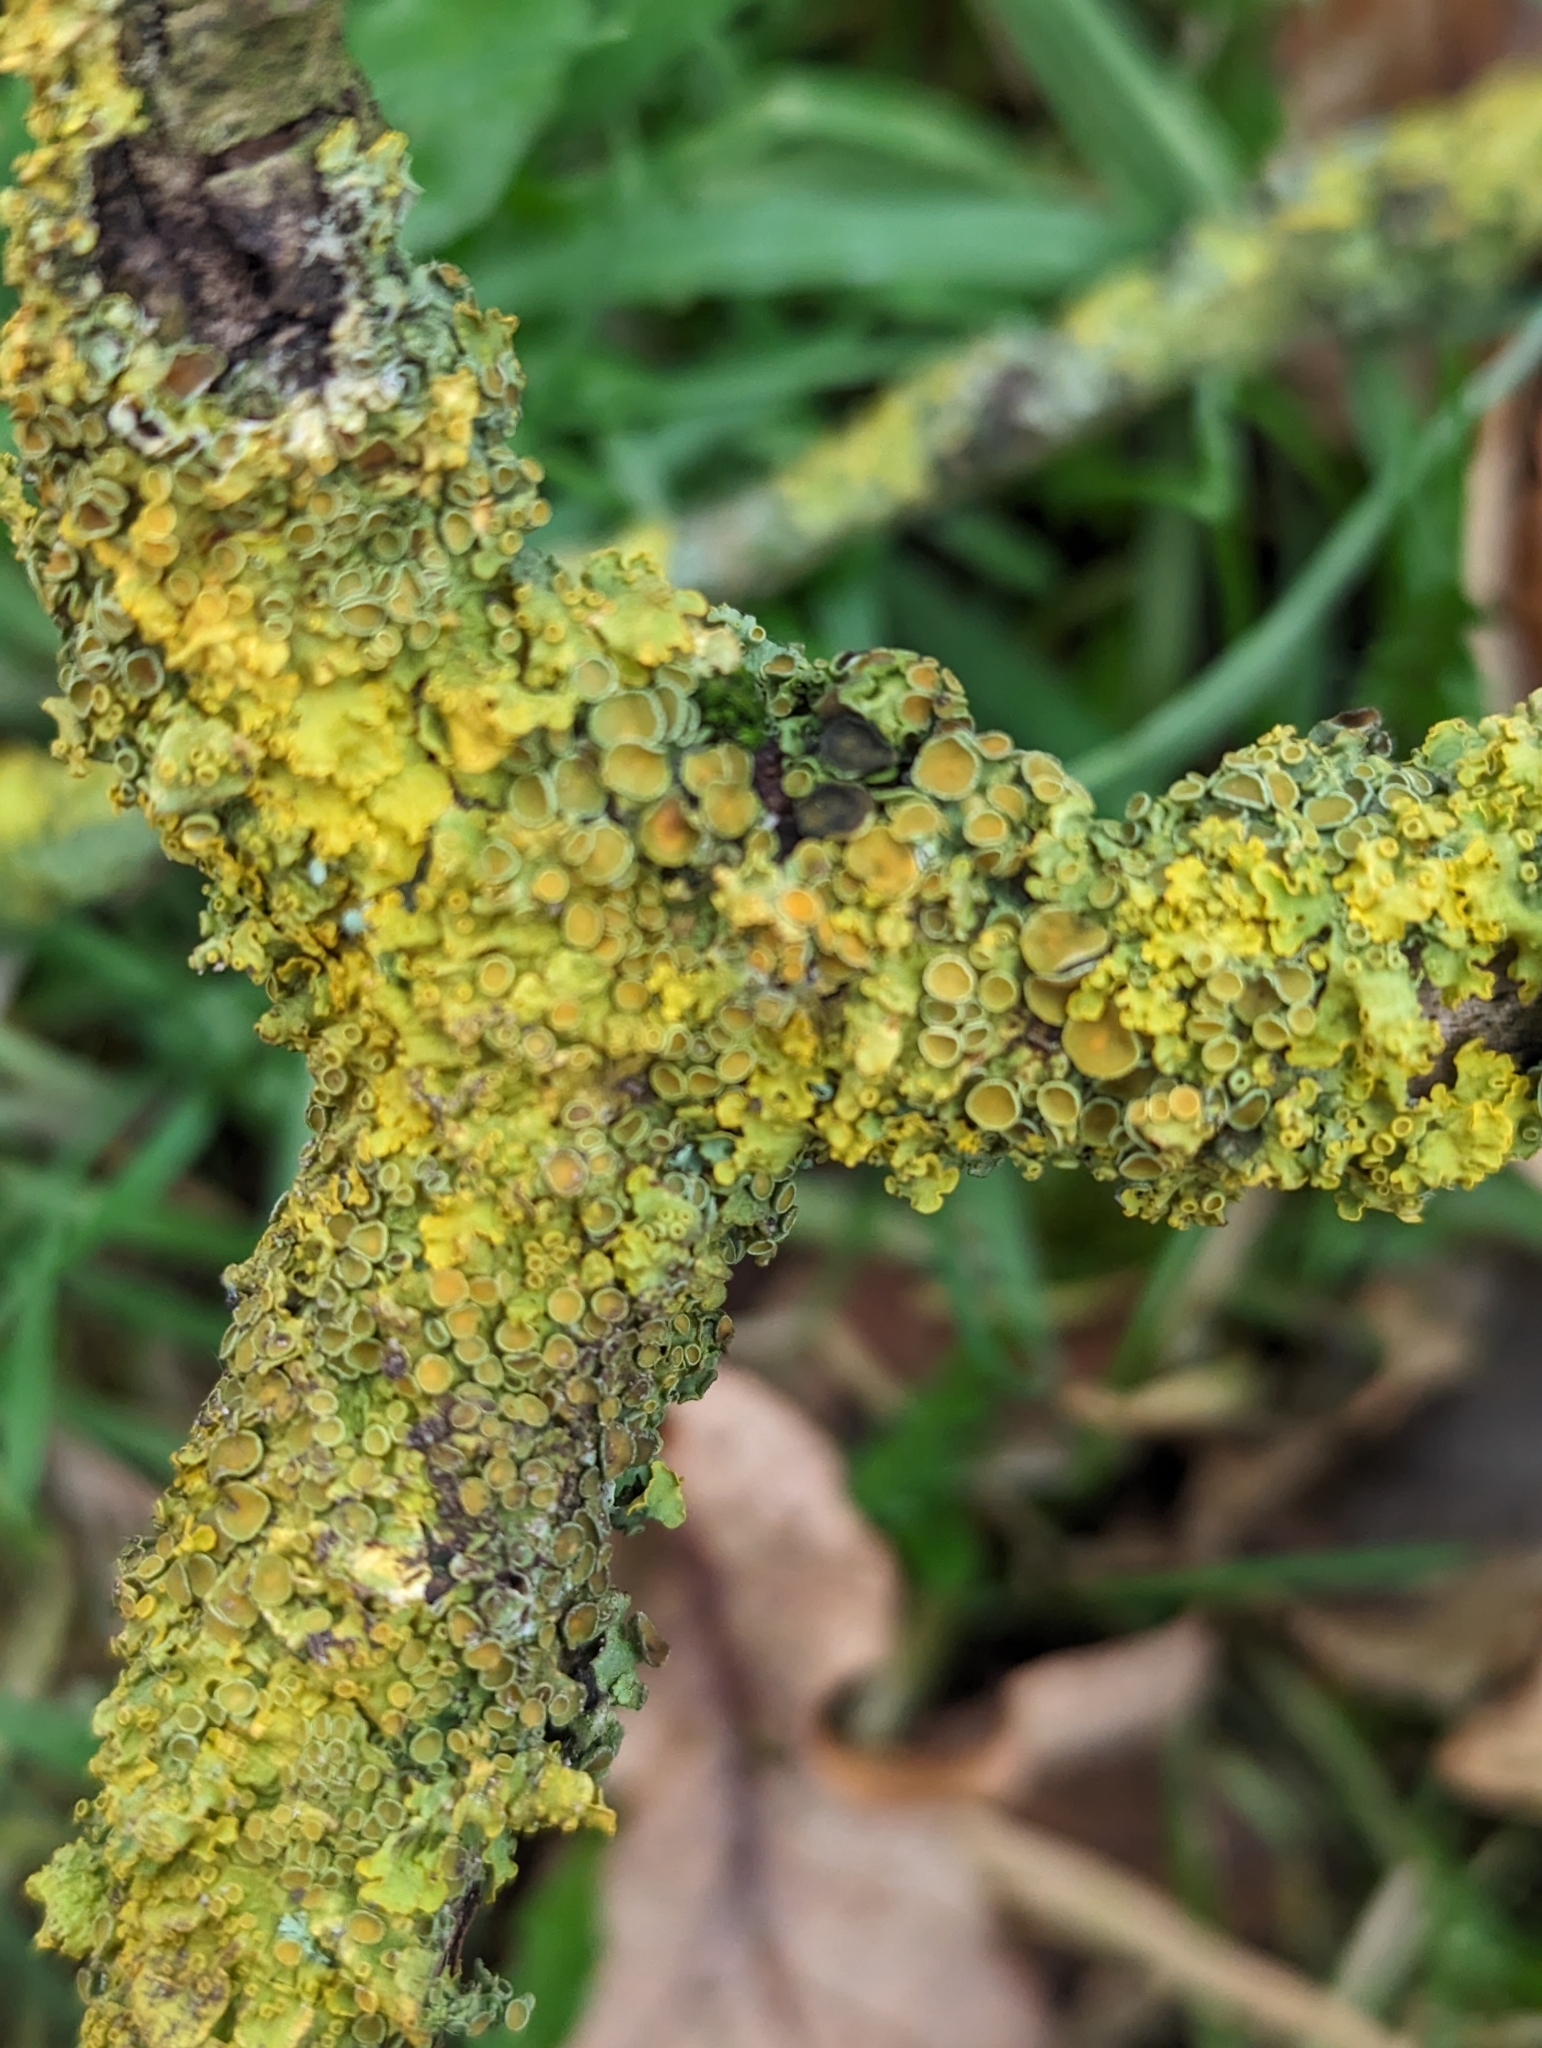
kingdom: Fungi
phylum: Ascomycota
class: Lecanoromycetes
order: Teloschistales
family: Teloschistaceae
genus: Xanthoria
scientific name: Xanthoria parietina
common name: Common orange lichen
